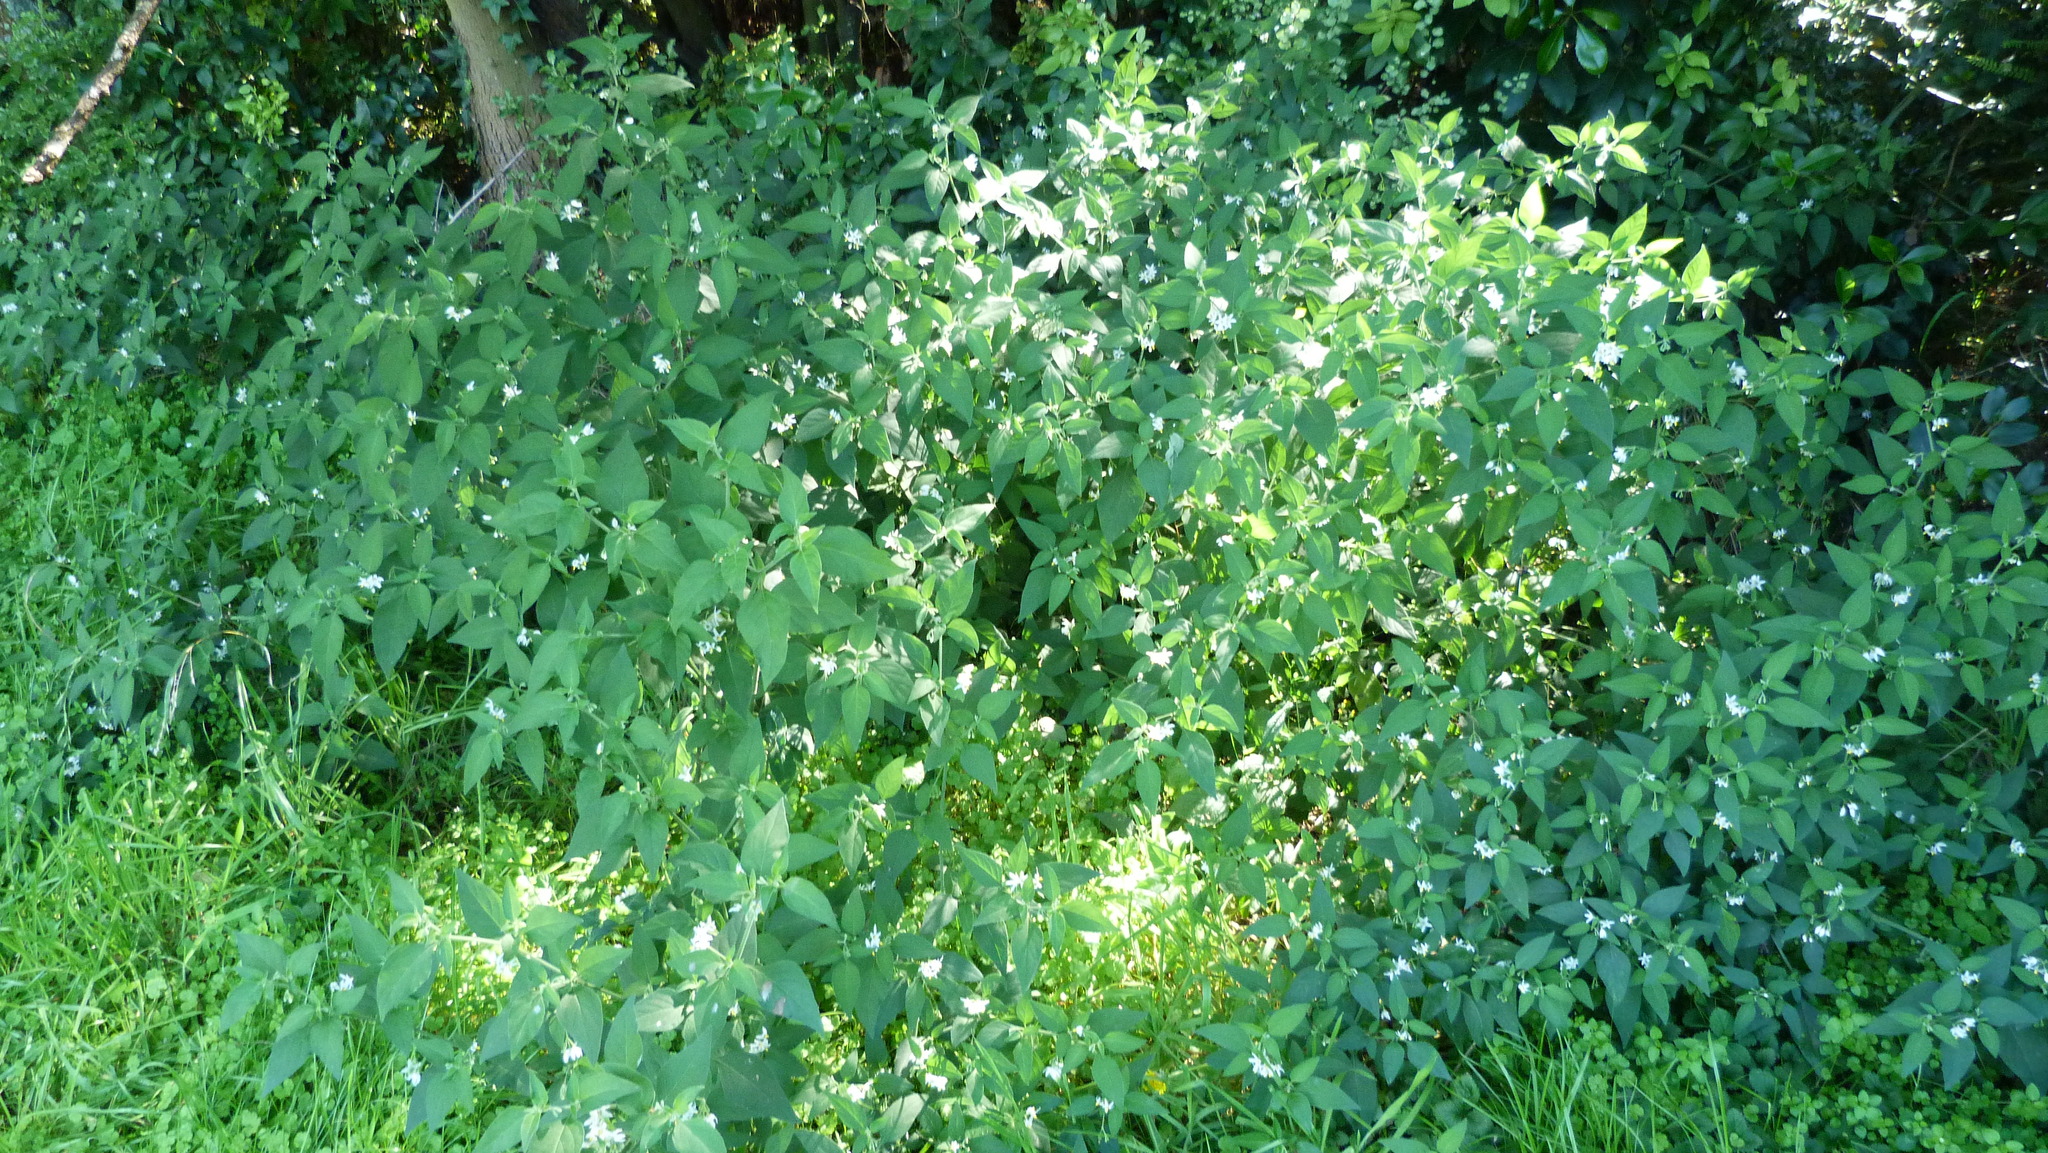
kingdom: Plantae
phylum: Tracheophyta
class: Magnoliopsida
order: Solanales
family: Solanaceae
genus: Solanum
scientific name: Solanum chenopodioides
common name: Tall nightshade
